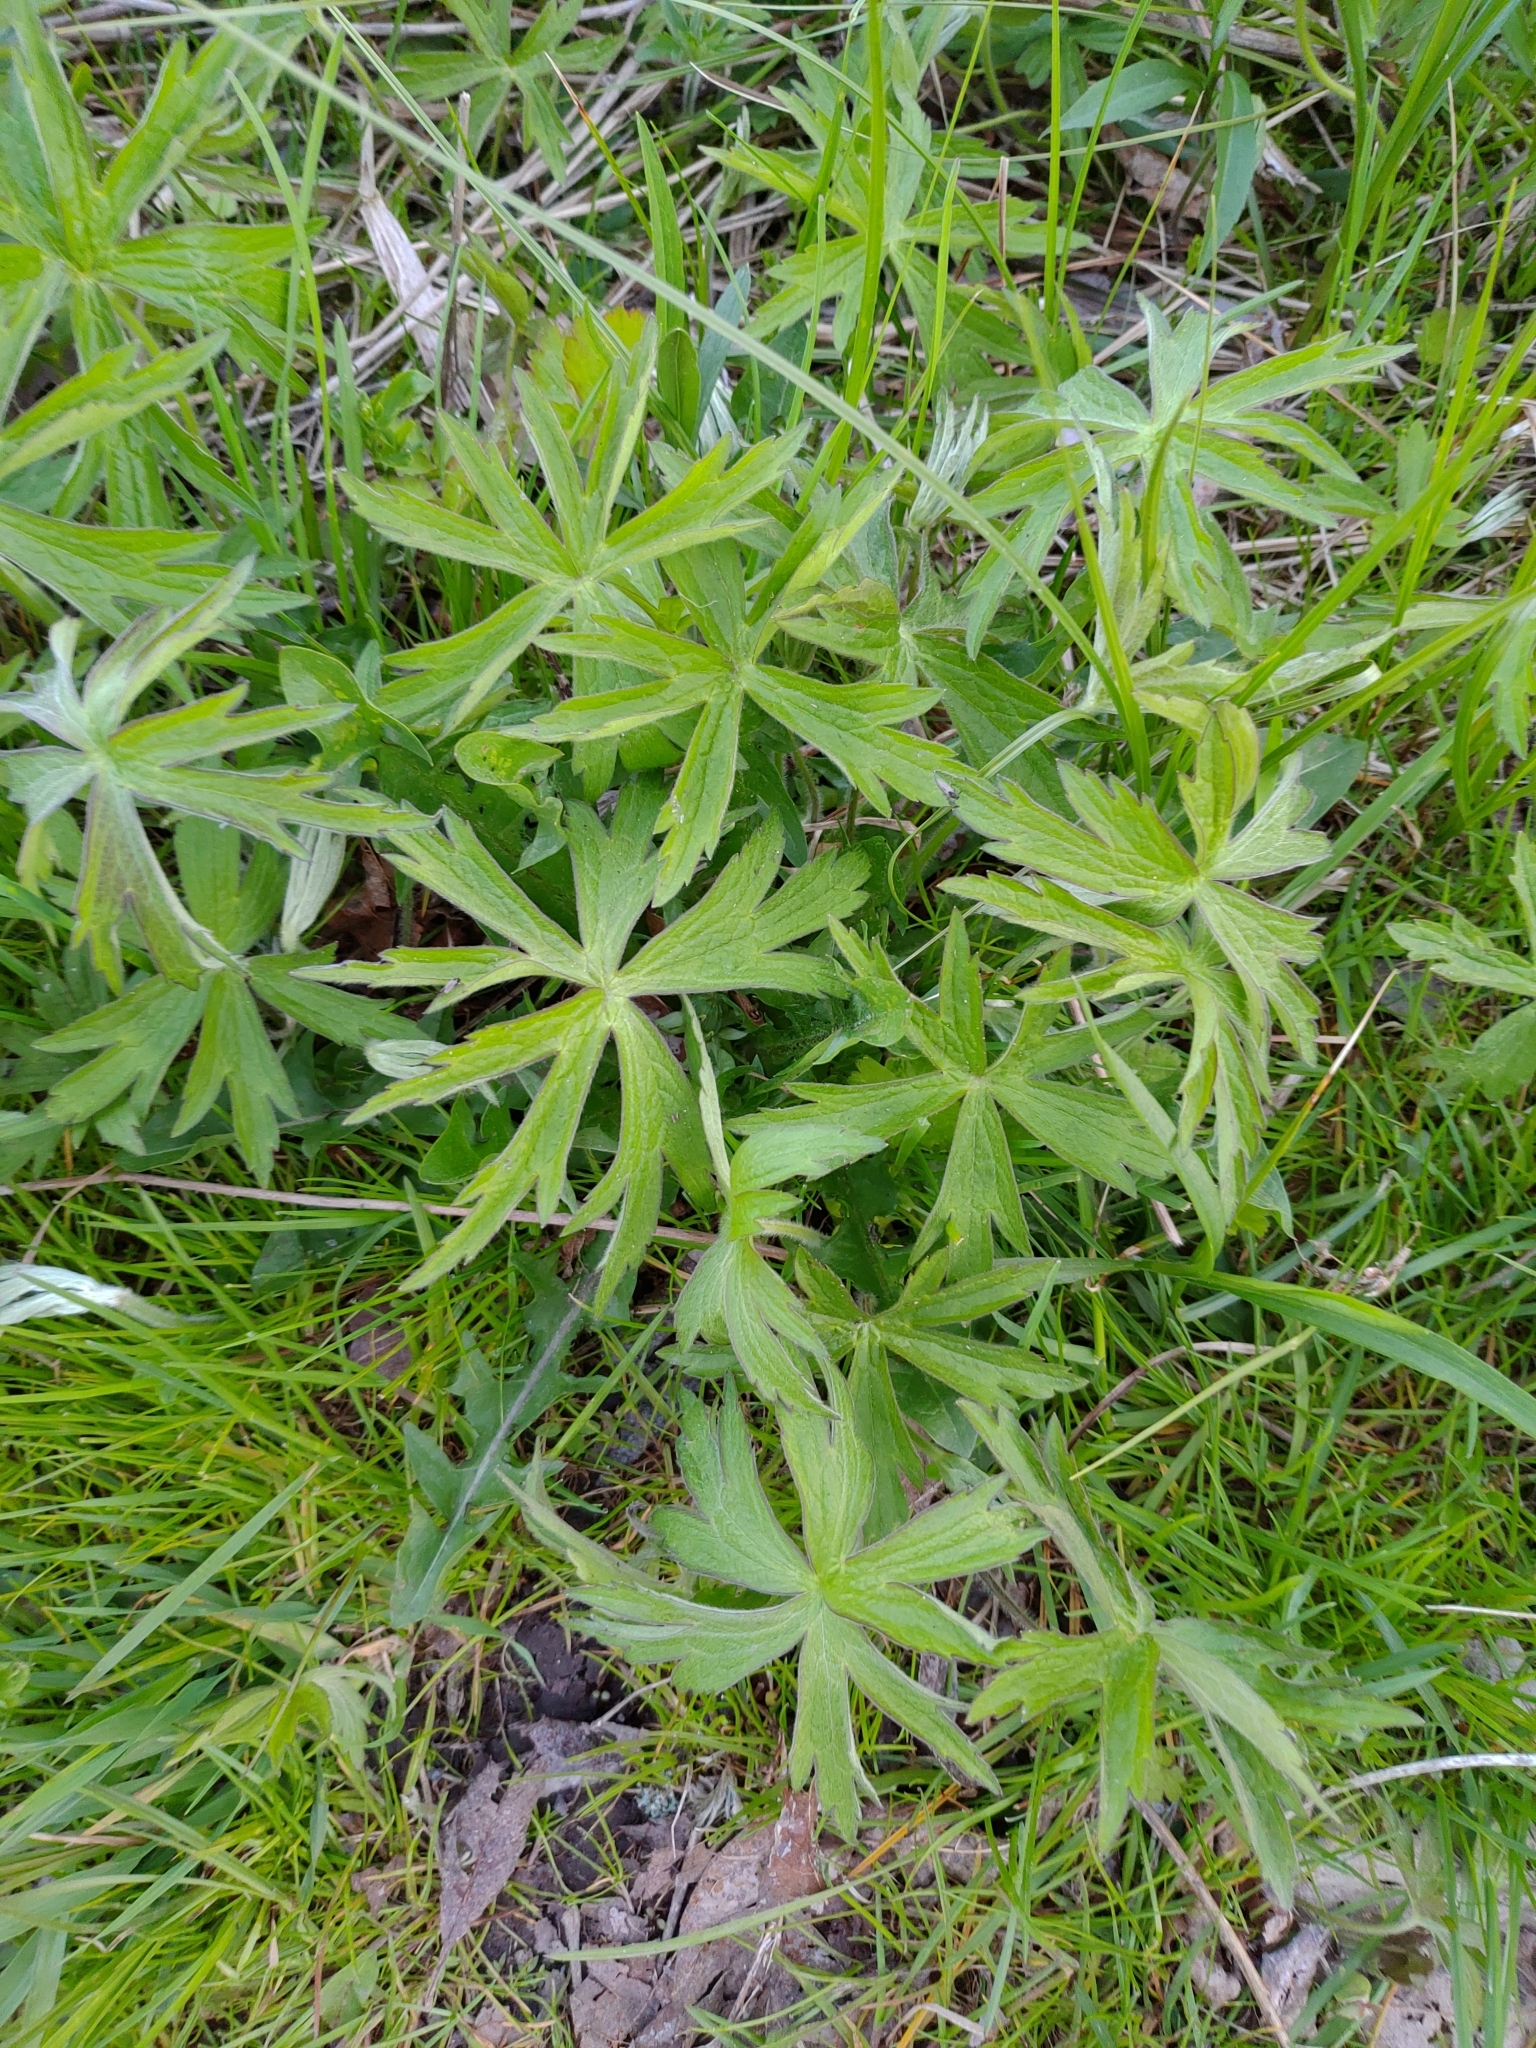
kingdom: Plantae
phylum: Tracheophyta
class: Magnoliopsida
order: Ranunculales
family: Ranunculaceae
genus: Anemonastrum
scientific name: Anemonastrum canadense
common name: Canada anemone
